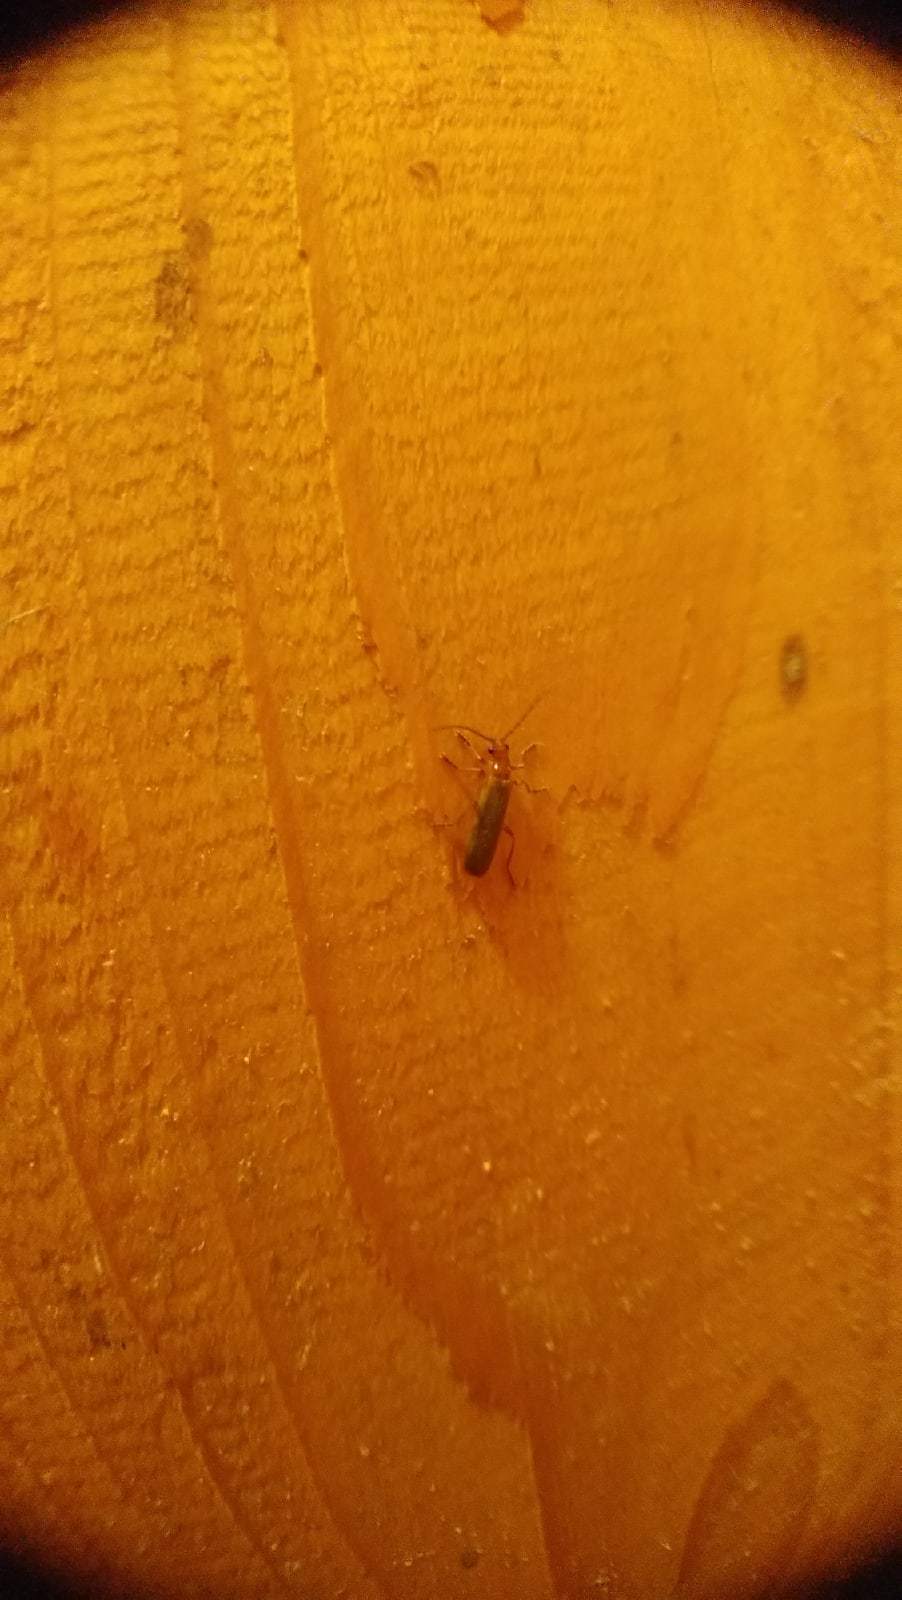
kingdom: Animalia
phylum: Arthropoda
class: Insecta
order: Coleoptera
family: Cantharidae
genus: Cantharis
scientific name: Cantharis rufa
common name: Red-spotted soldier beetle
